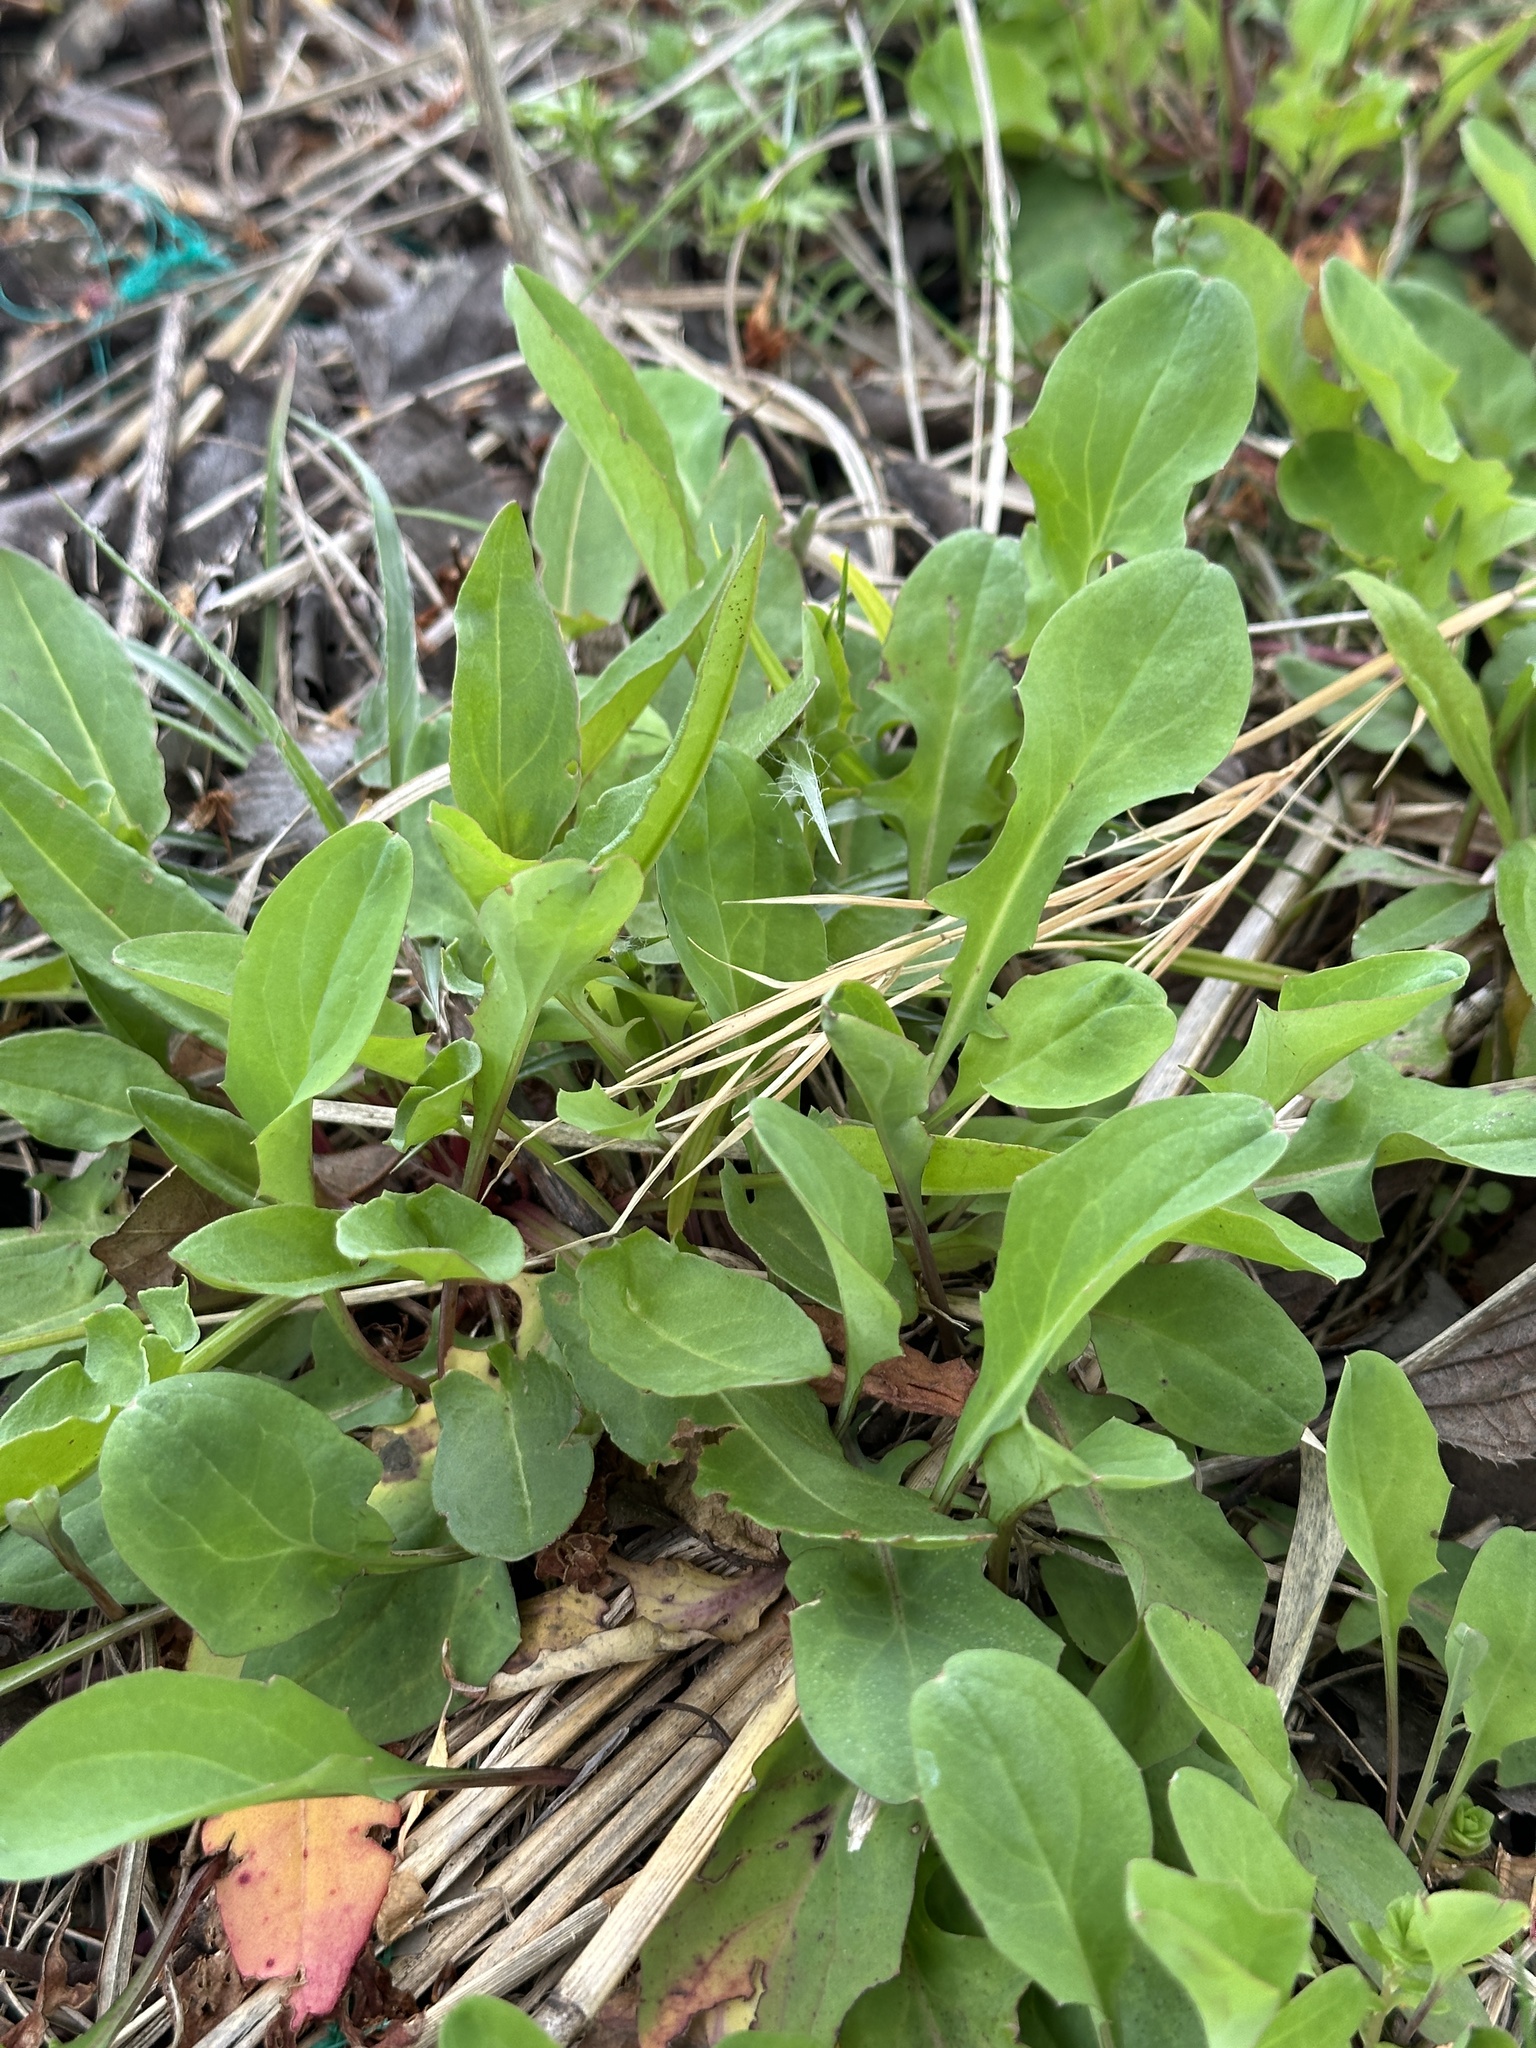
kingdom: Plantae
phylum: Tracheophyta
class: Magnoliopsida
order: Asterales
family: Asteraceae
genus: Ixeris
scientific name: Ixeris japonica
